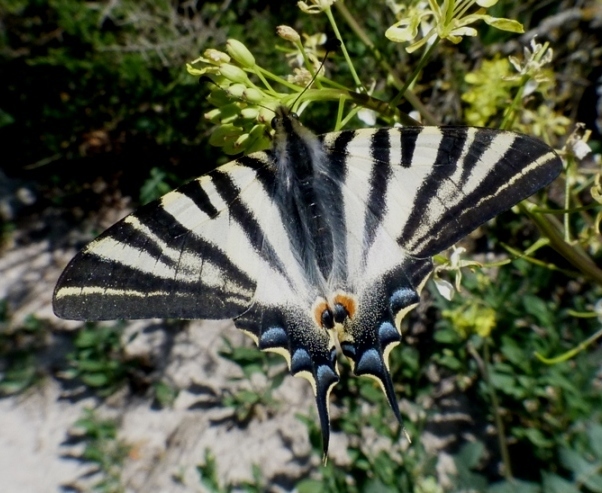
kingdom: Animalia
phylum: Arthropoda
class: Insecta
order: Lepidoptera
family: Papilionidae
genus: Iphiclides
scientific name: Iphiclides feisthamelii
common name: Iberian scarce swallowtail
